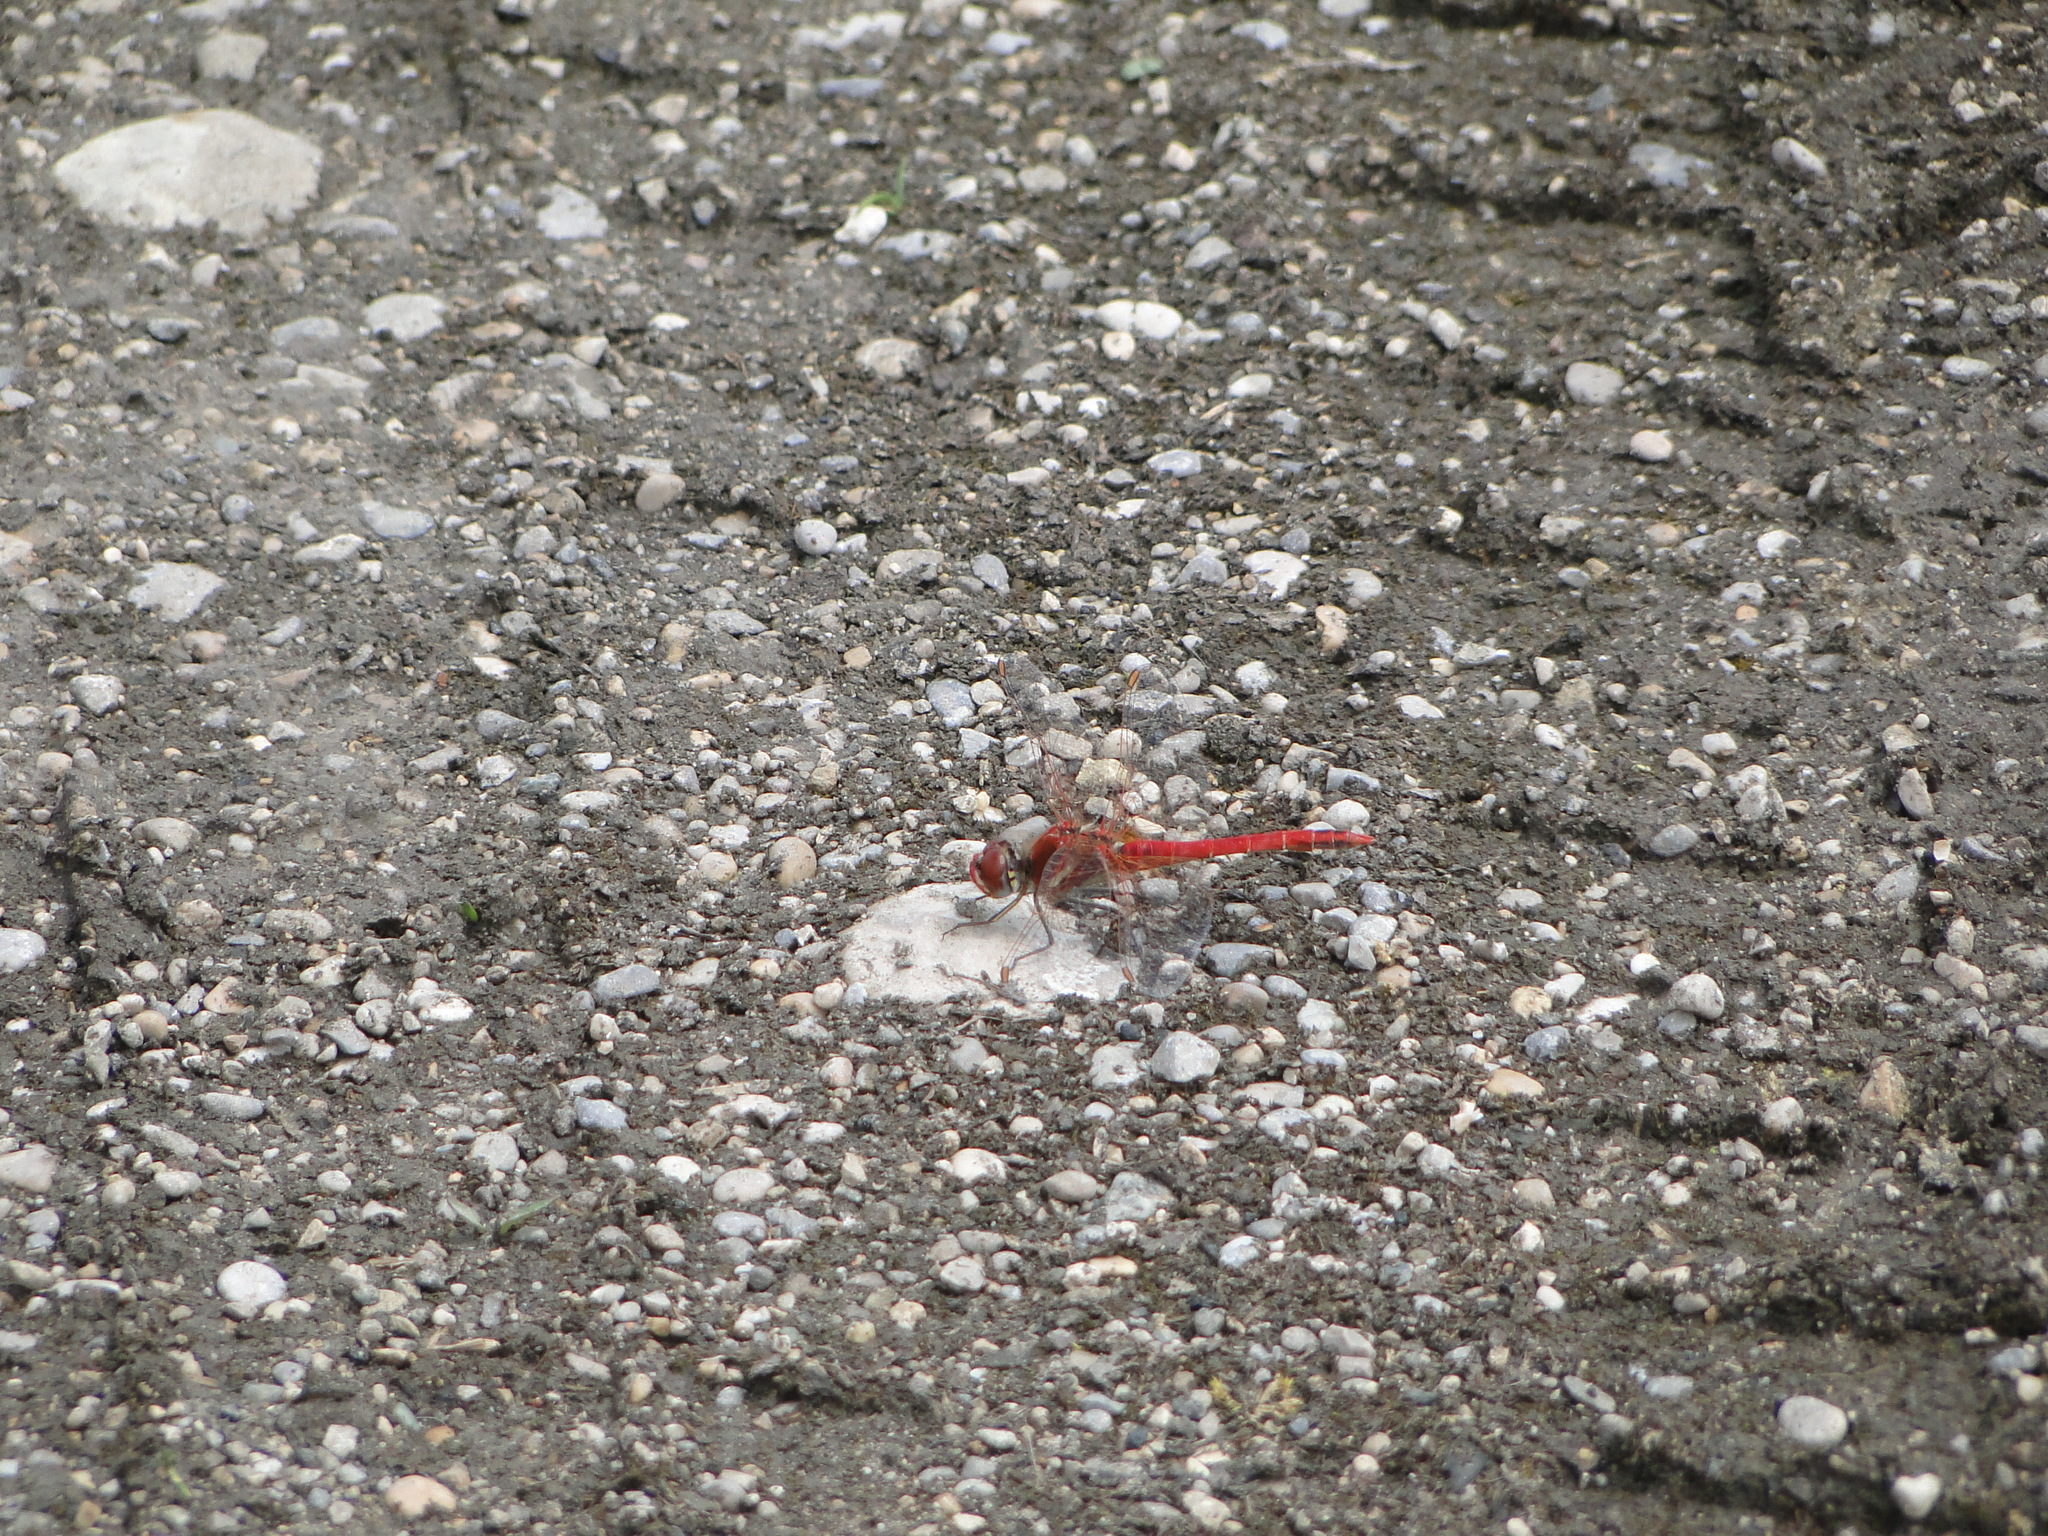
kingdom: Animalia
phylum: Arthropoda
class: Insecta
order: Odonata
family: Libellulidae
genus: Sympetrum
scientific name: Sympetrum sanguineum
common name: Ruddy darter
